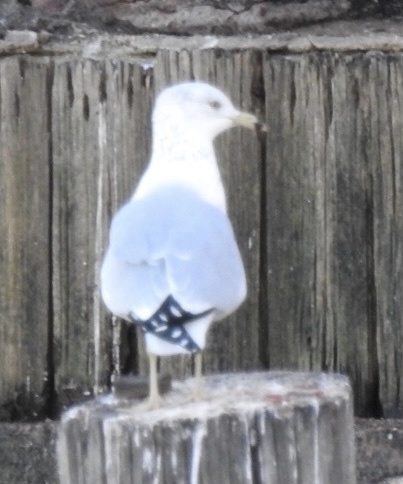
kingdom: Animalia
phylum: Chordata
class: Aves
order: Charadriiformes
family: Laridae
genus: Larus
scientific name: Larus delawarensis
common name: Ring-billed gull
